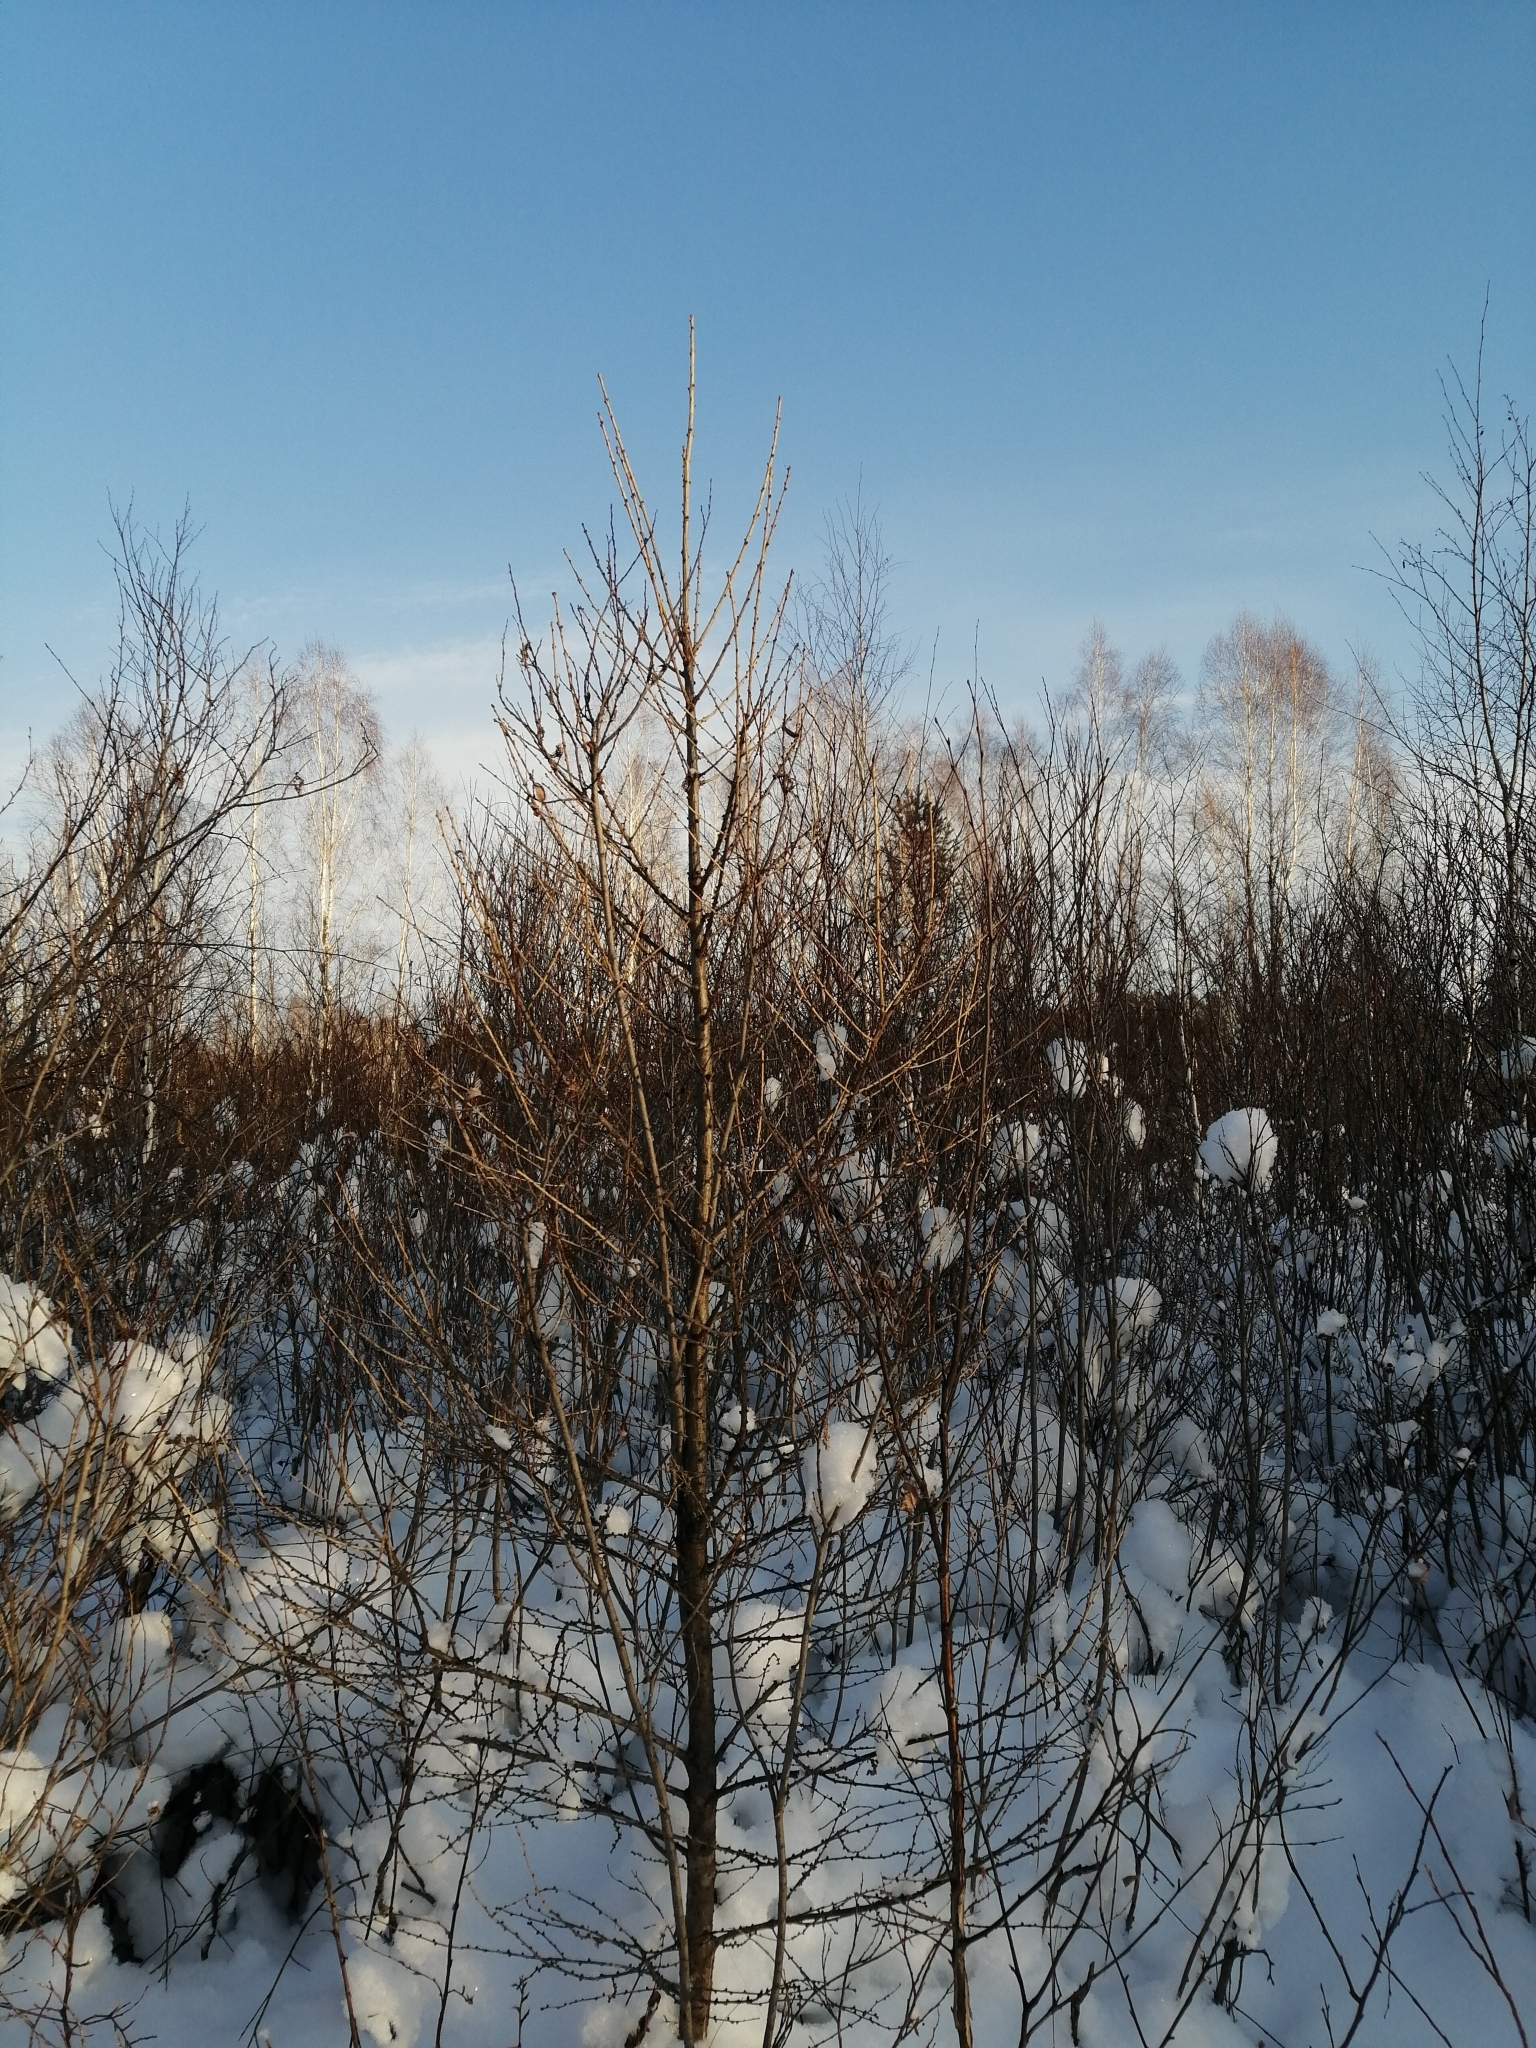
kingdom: Plantae
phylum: Tracheophyta
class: Pinopsida
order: Pinales
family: Pinaceae
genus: Larix
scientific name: Larix sibirica
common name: Siberian larch
